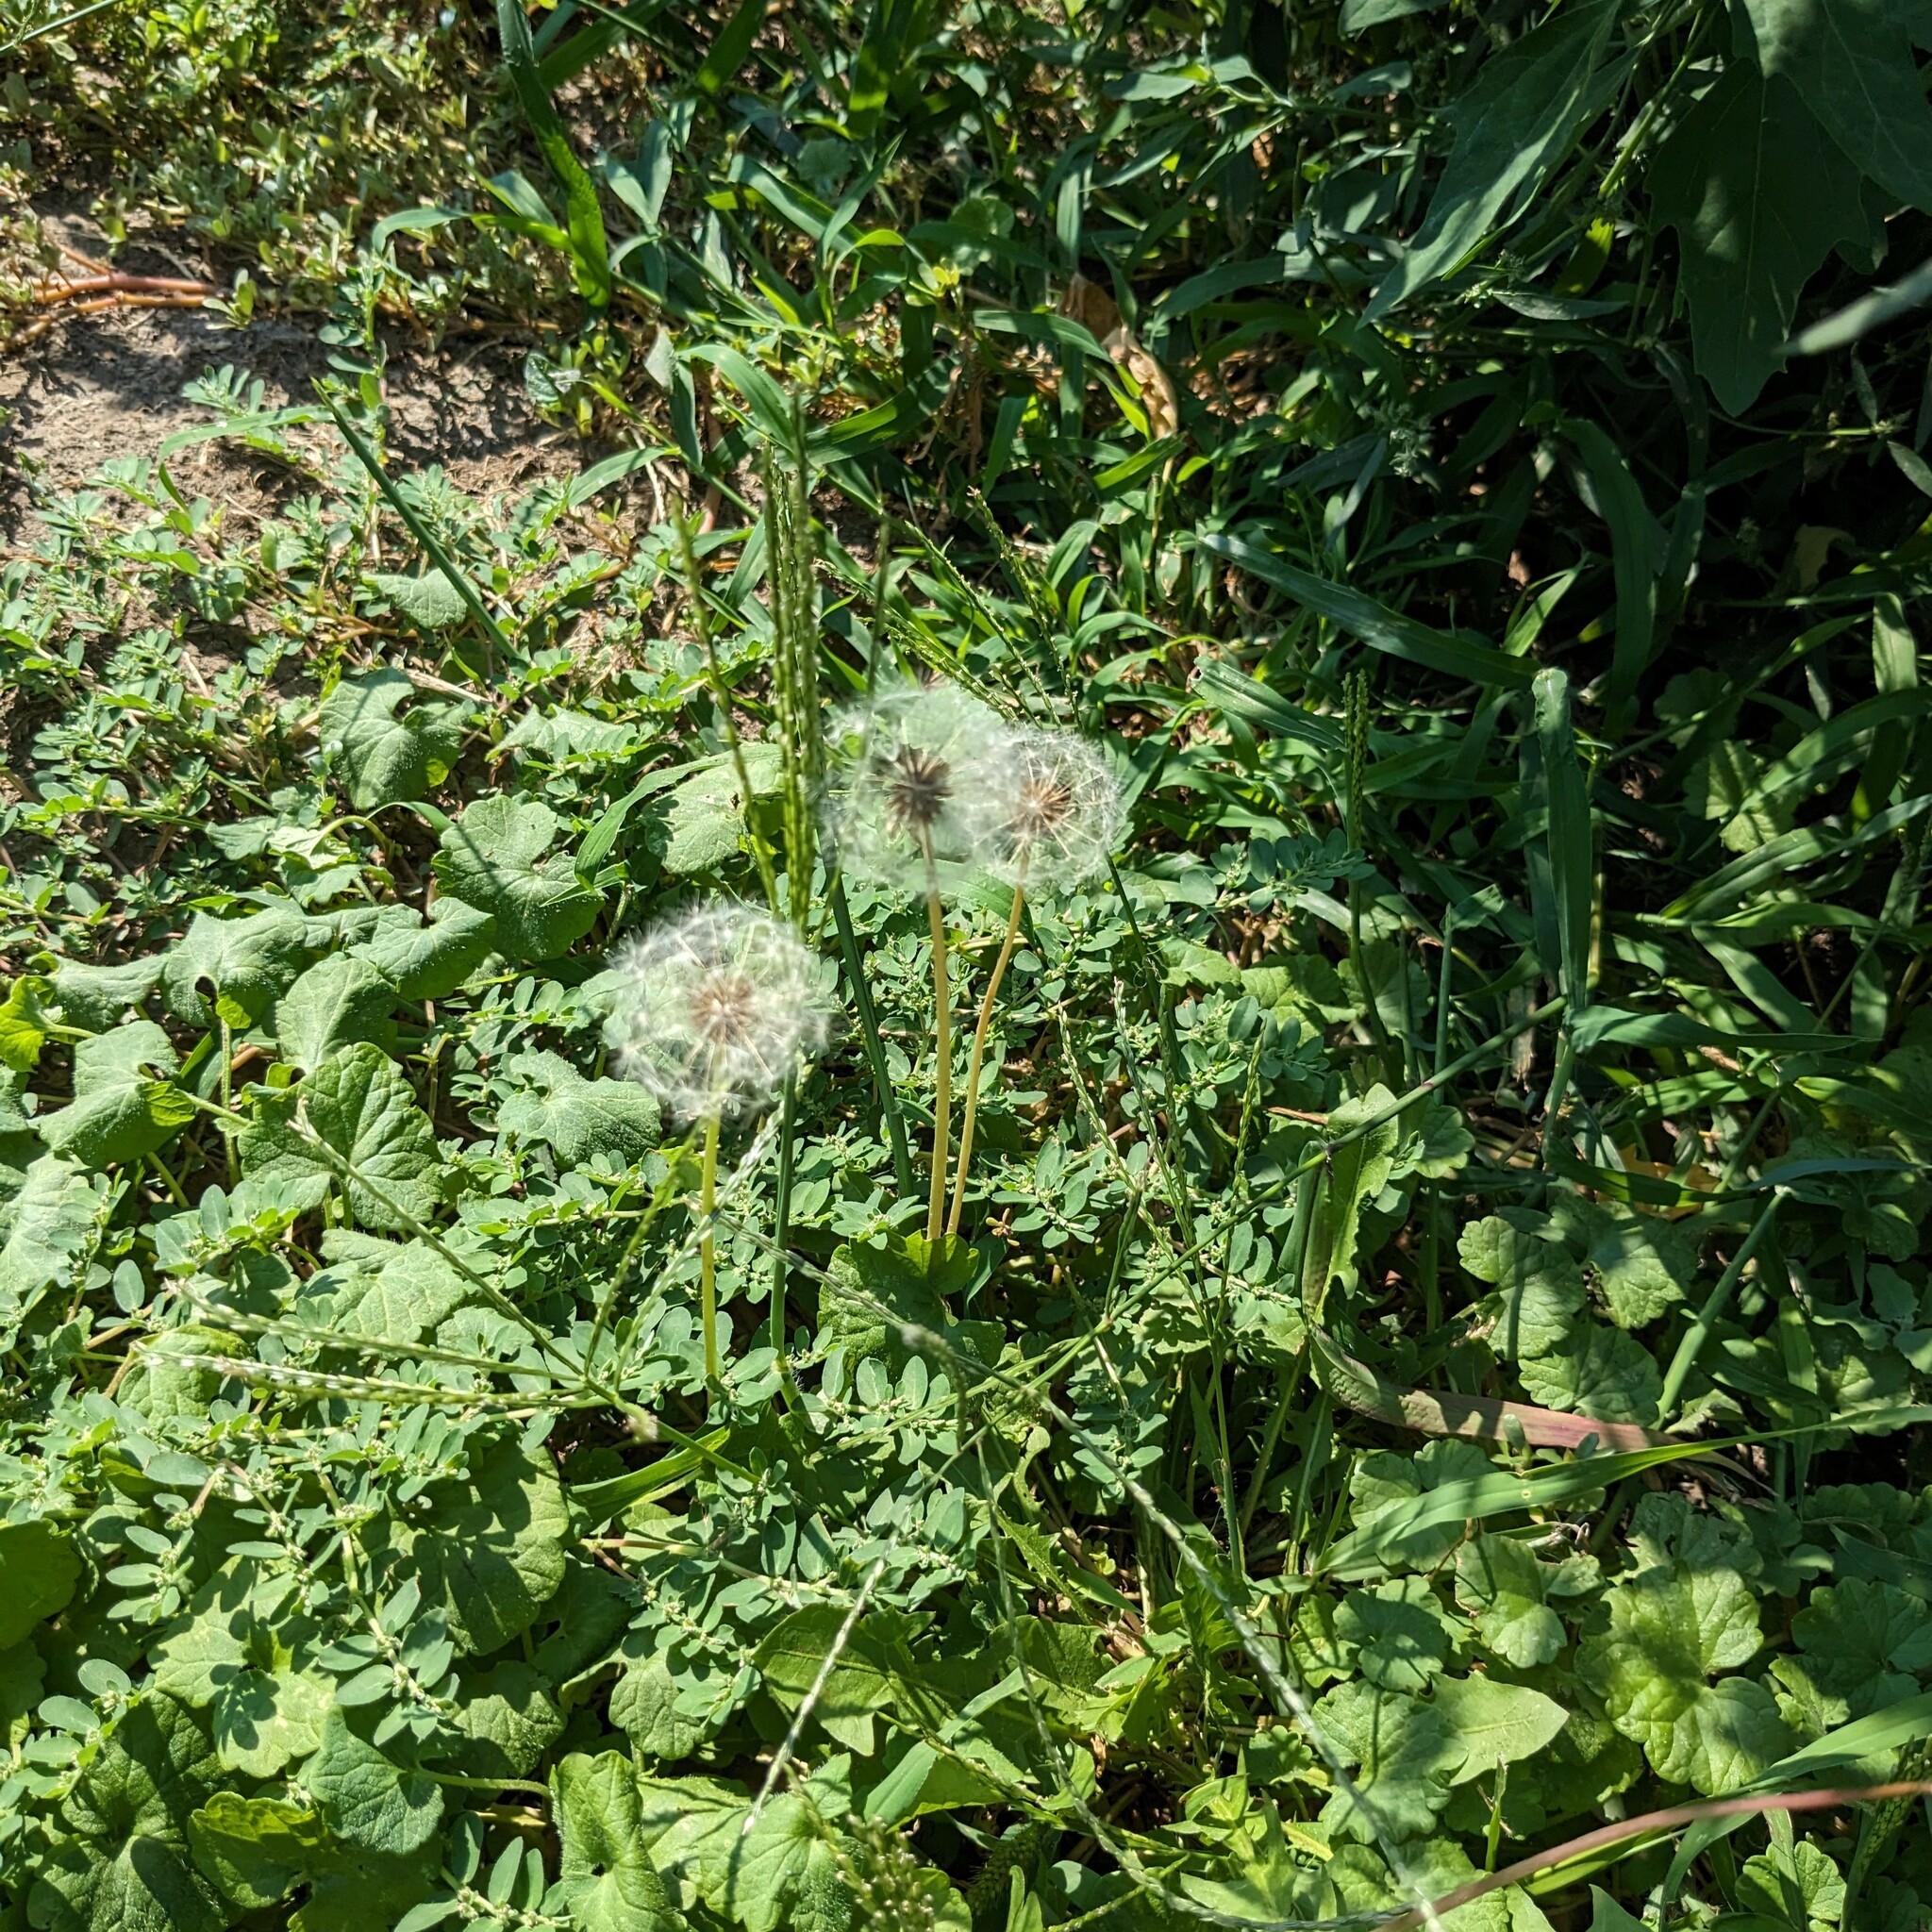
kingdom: Plantae
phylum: Tracheophyta
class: Magnoliopsida
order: Asterales
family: Asteraceae
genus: Taraxacum
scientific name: Taraxacum officinale
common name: Common dandelion
